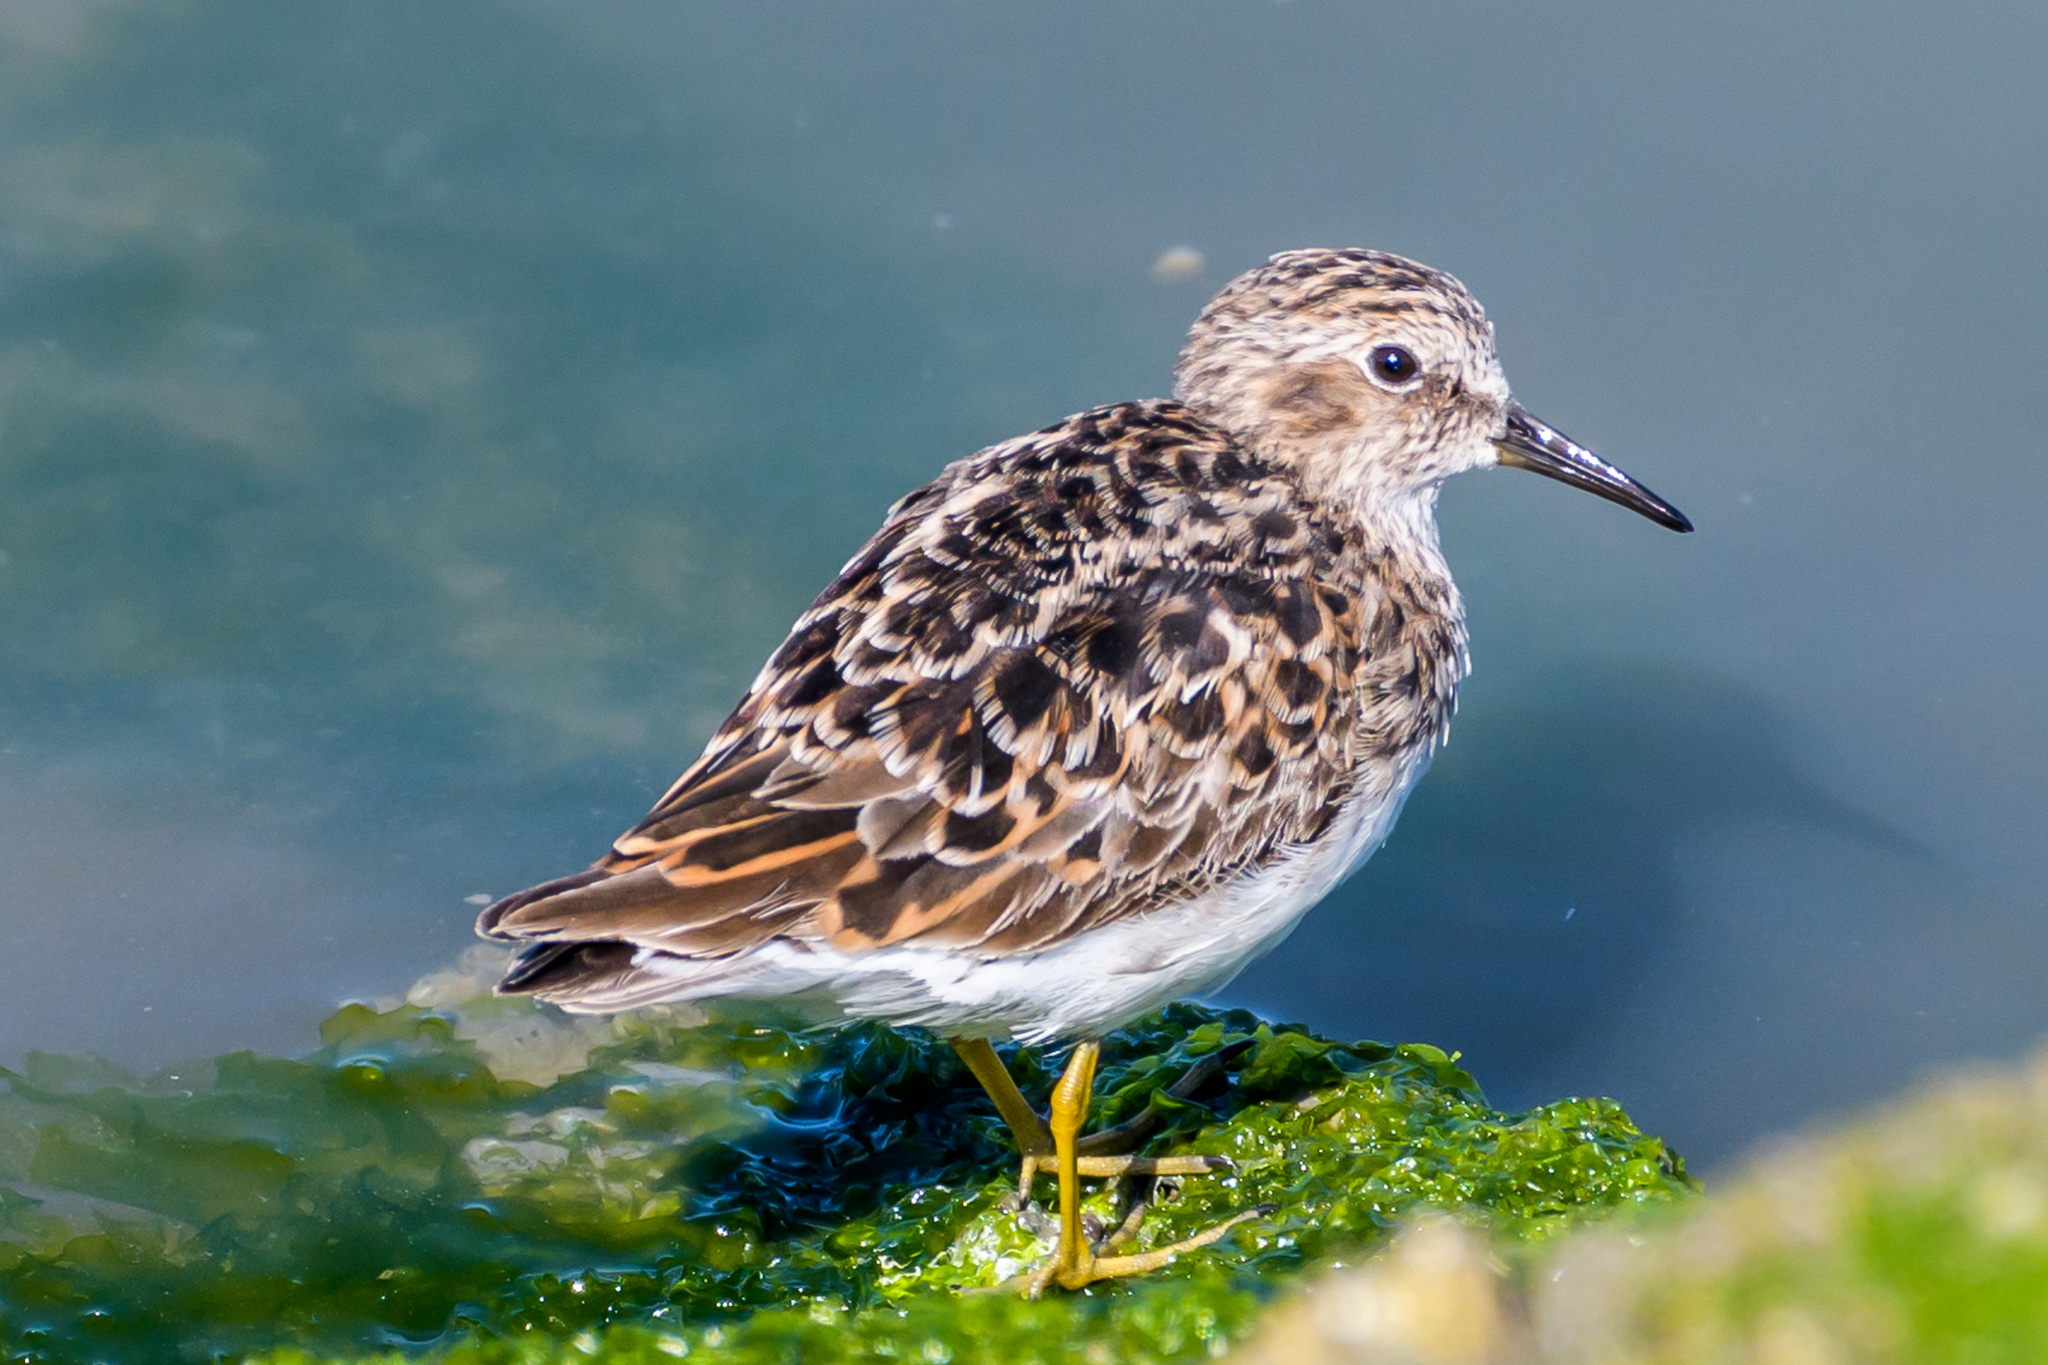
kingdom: Animalia
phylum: Chordata
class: Aves
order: Charadriiformes
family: Scolopacidae
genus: Calidris
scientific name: Calidris minutilla
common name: Least sandpiper
